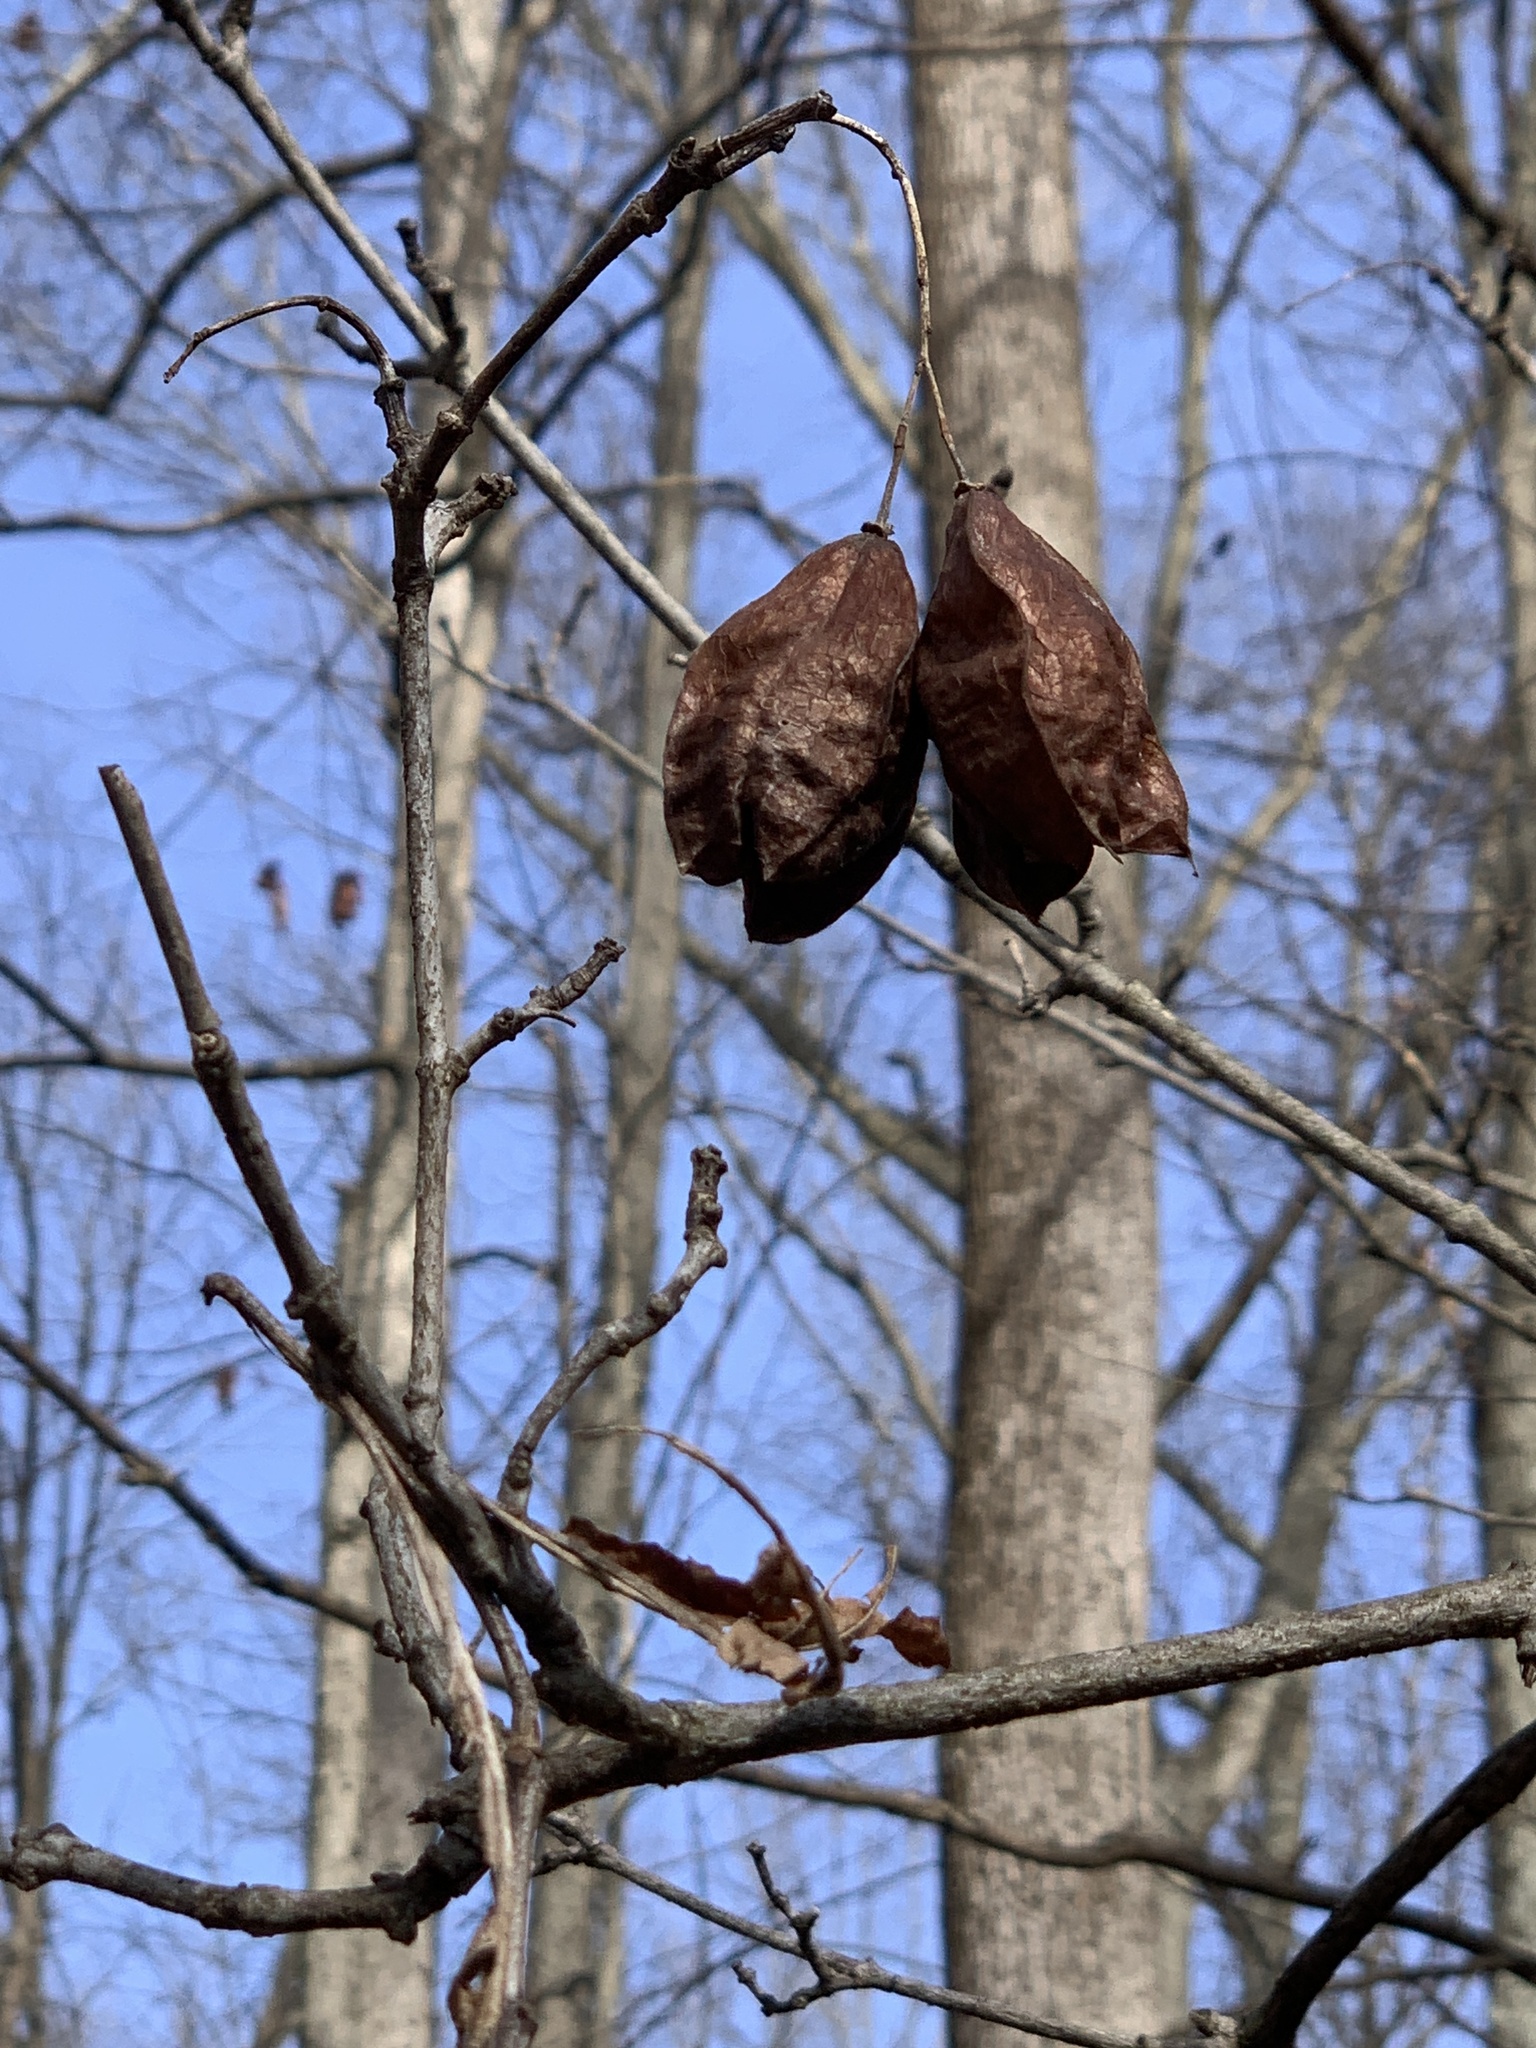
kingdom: Plantae
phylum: Tracheophyta
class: Magnoliopsida
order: Crossosomatales
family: Staphyleaceae
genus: Staphylea
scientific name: Staphylea trifolia
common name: American bladdernut
